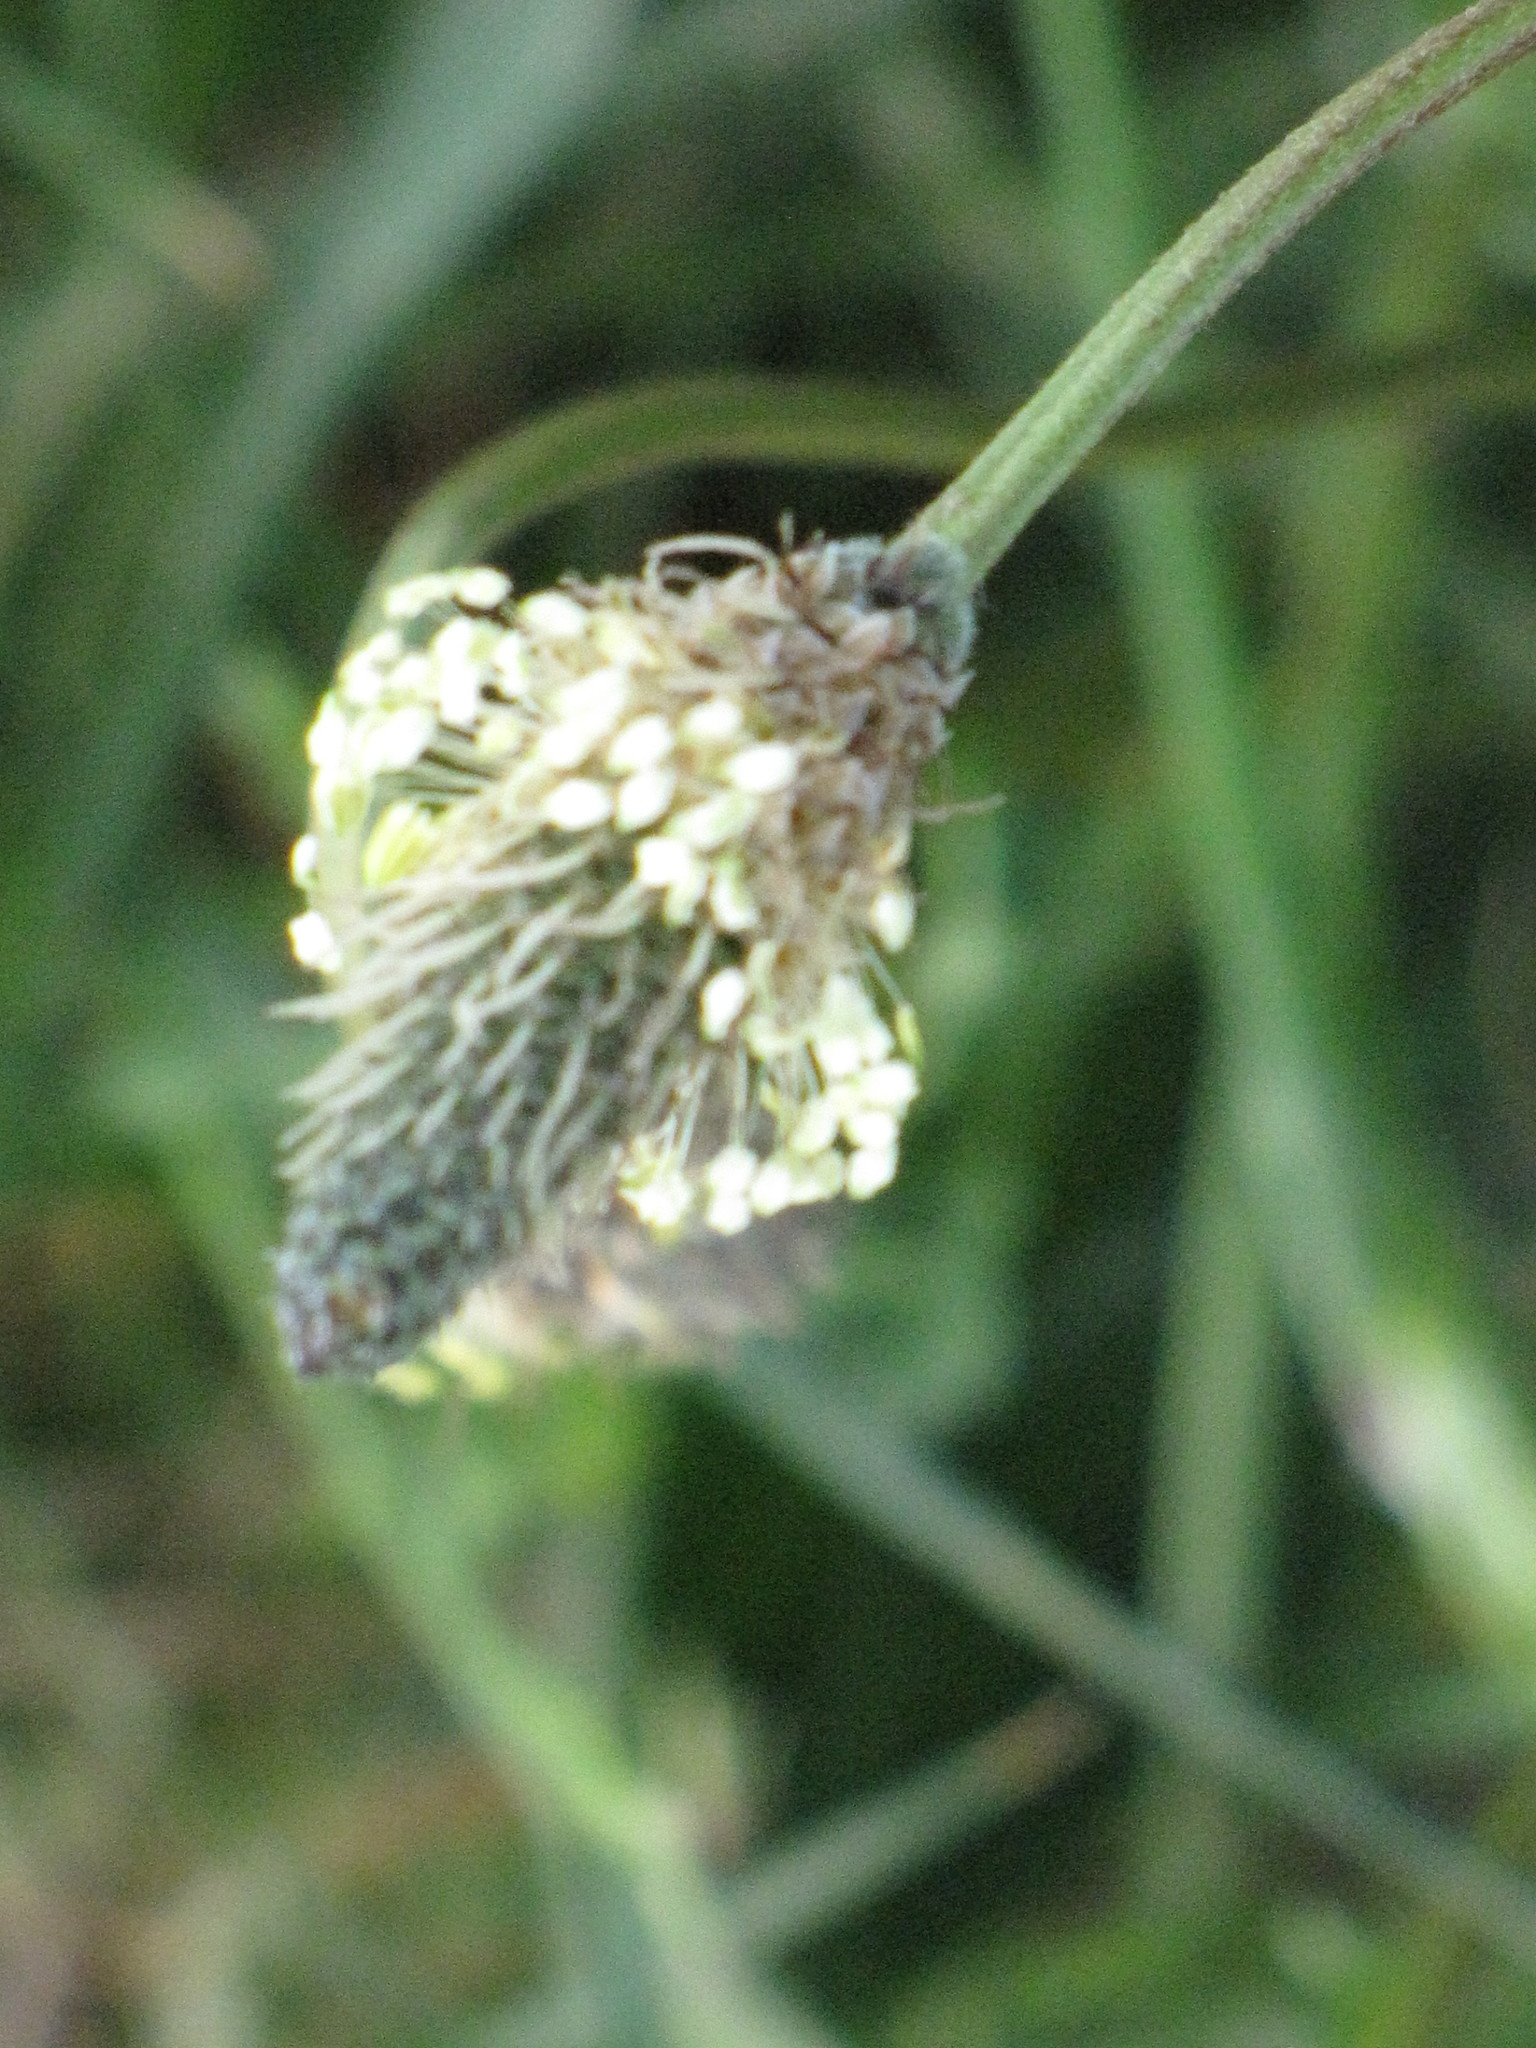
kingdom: Plantae
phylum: Tracheophyta
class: Magnoliopsida
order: Lamiales
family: Plantaginaceae
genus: Plantago
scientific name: Plantago lanceolata
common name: Ribwort plantain
